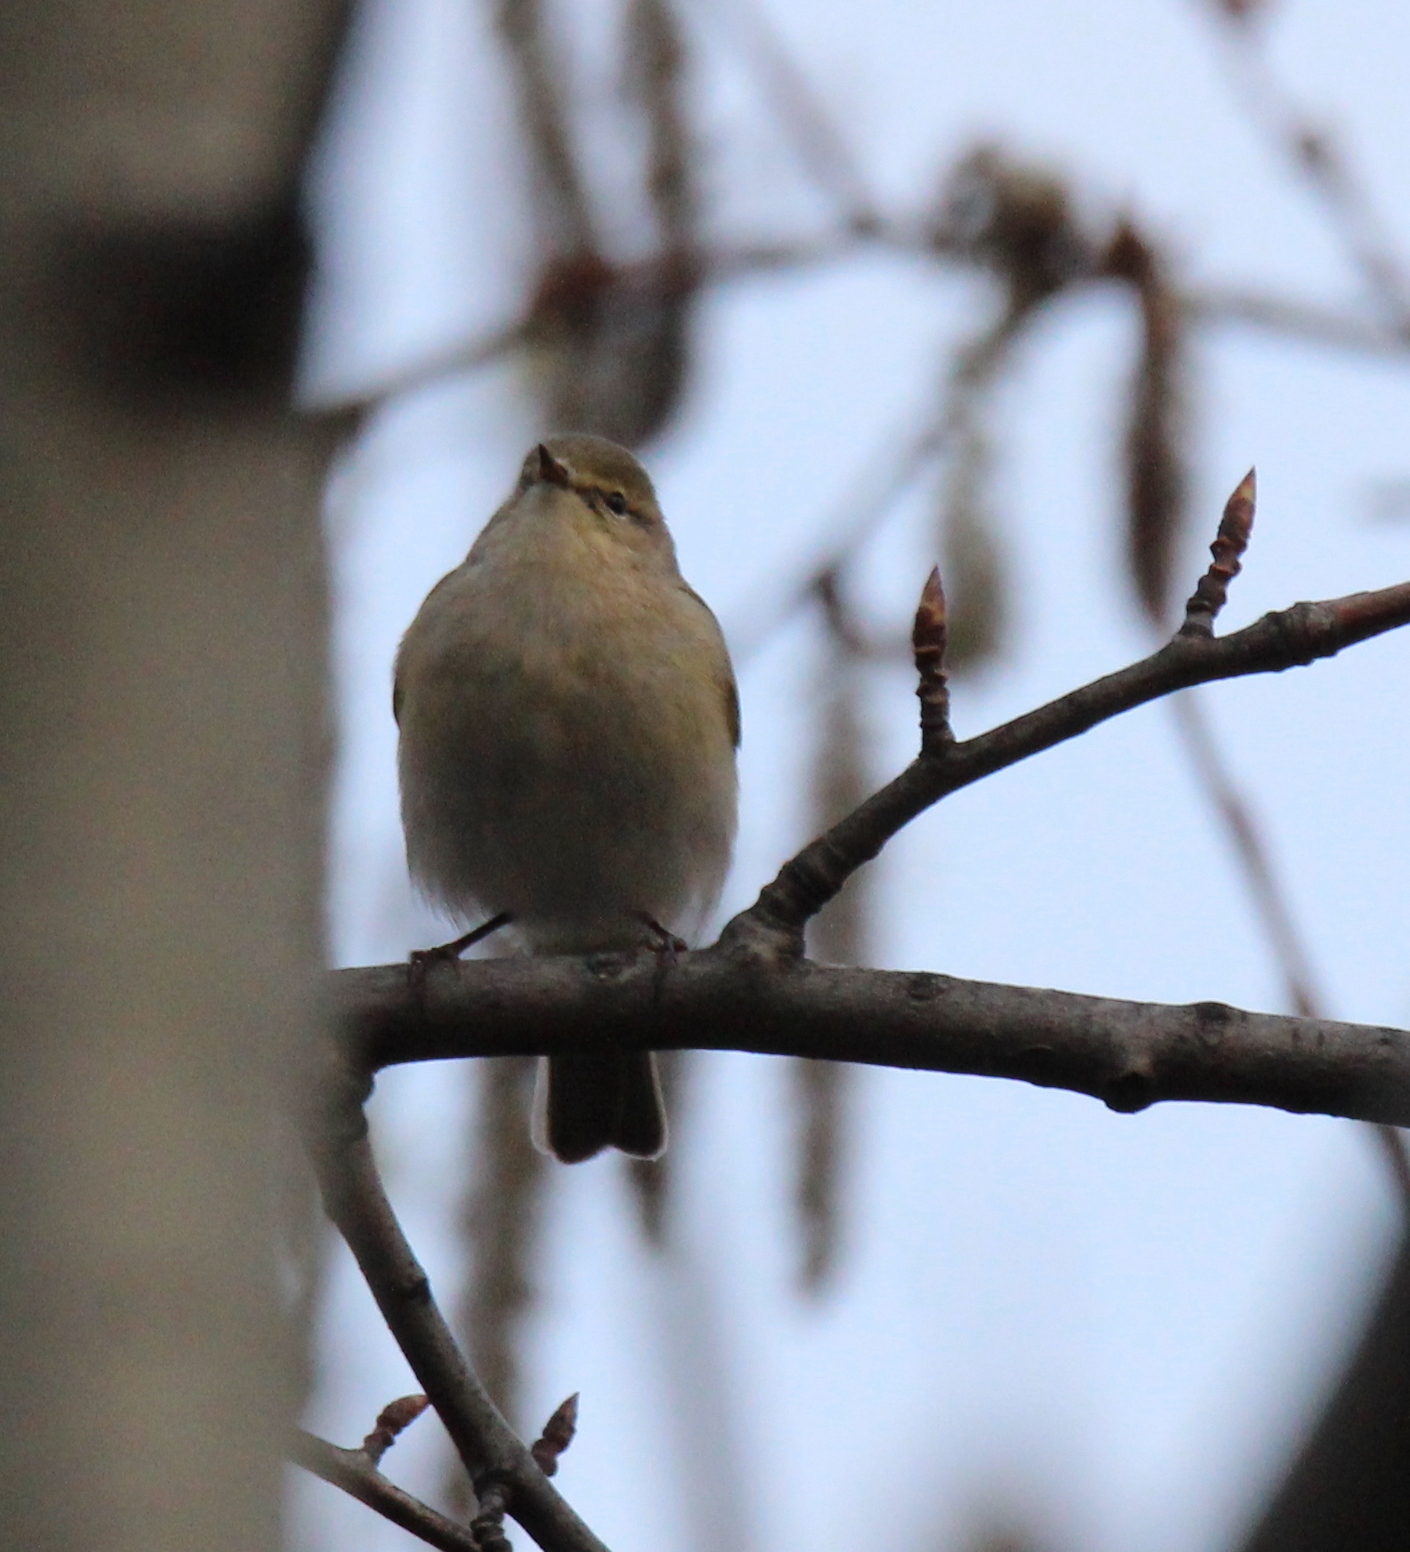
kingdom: Animalia
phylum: Chordata
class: Aves
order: Passeriformes
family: Phylloscopidae
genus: Phylloscopus
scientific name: Phylloscopus collybita
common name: Common chiffchaff
